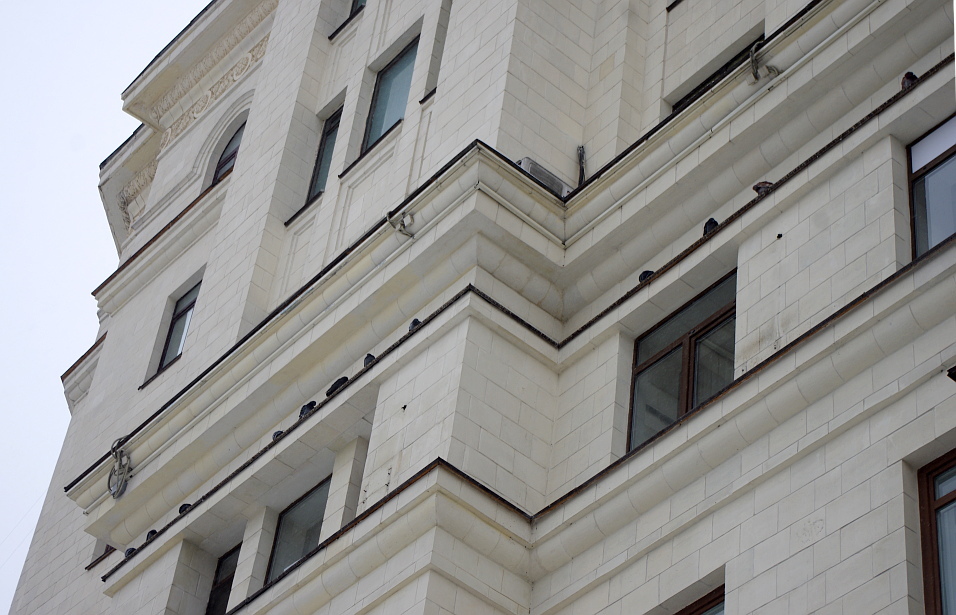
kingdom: Animalia
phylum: Chordata
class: Aves
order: Columbiformes
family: Columbidae
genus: Columba
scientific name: Columba livia
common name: Rock pigeon
